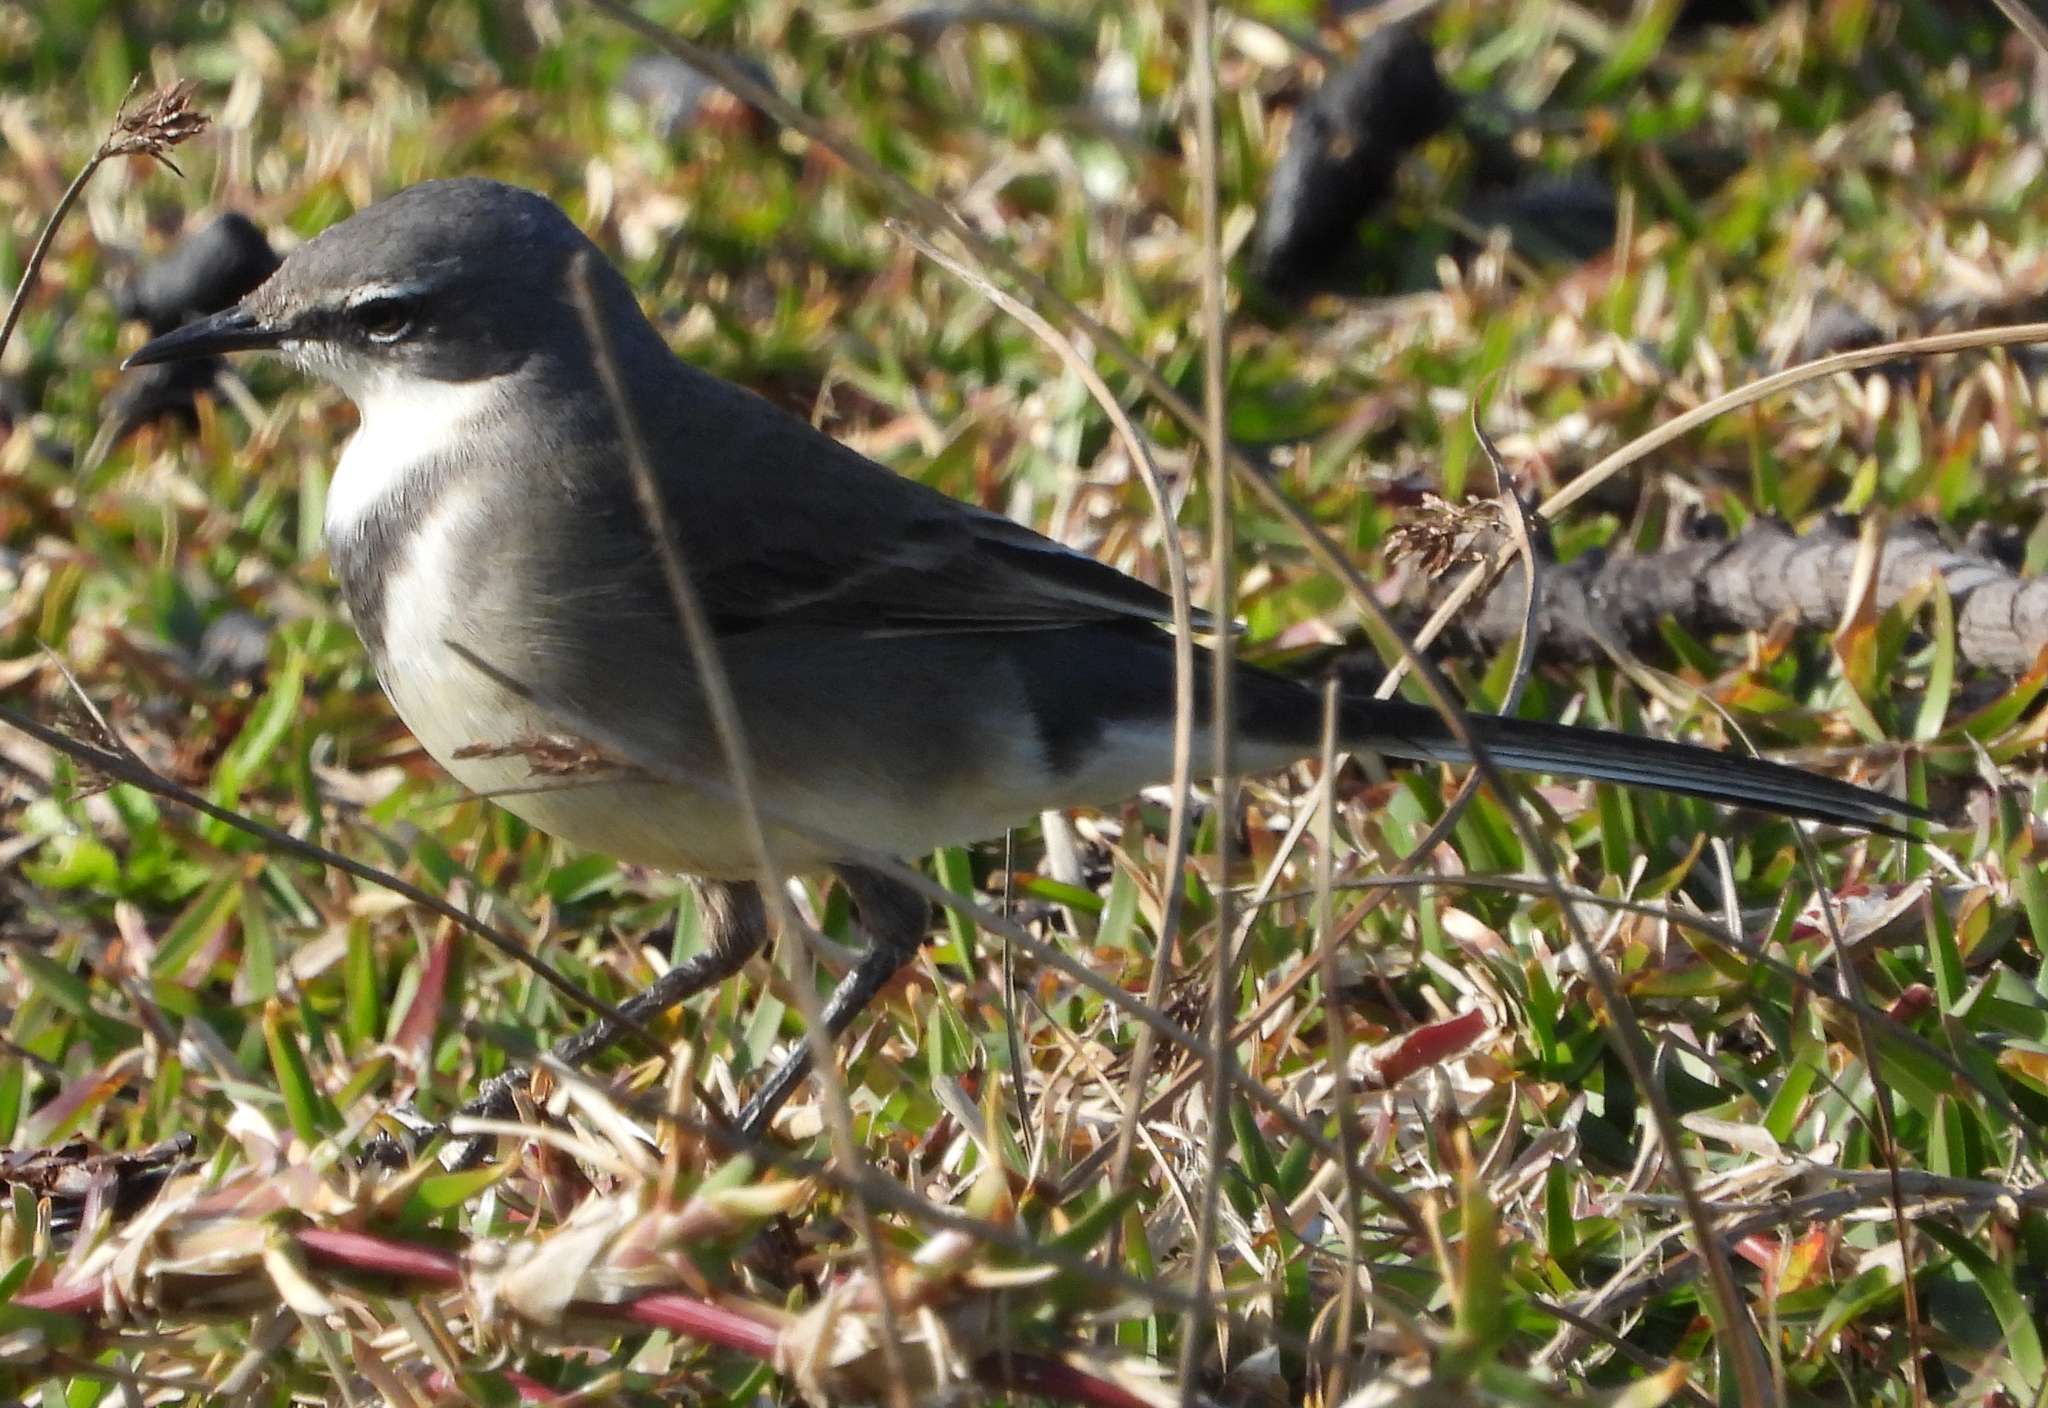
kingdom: Animalia
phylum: Chordata
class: Aves
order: Passeriformes
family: Motacillidae
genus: Motacilla
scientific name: Motacilla capensis
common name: Cape wagtail
